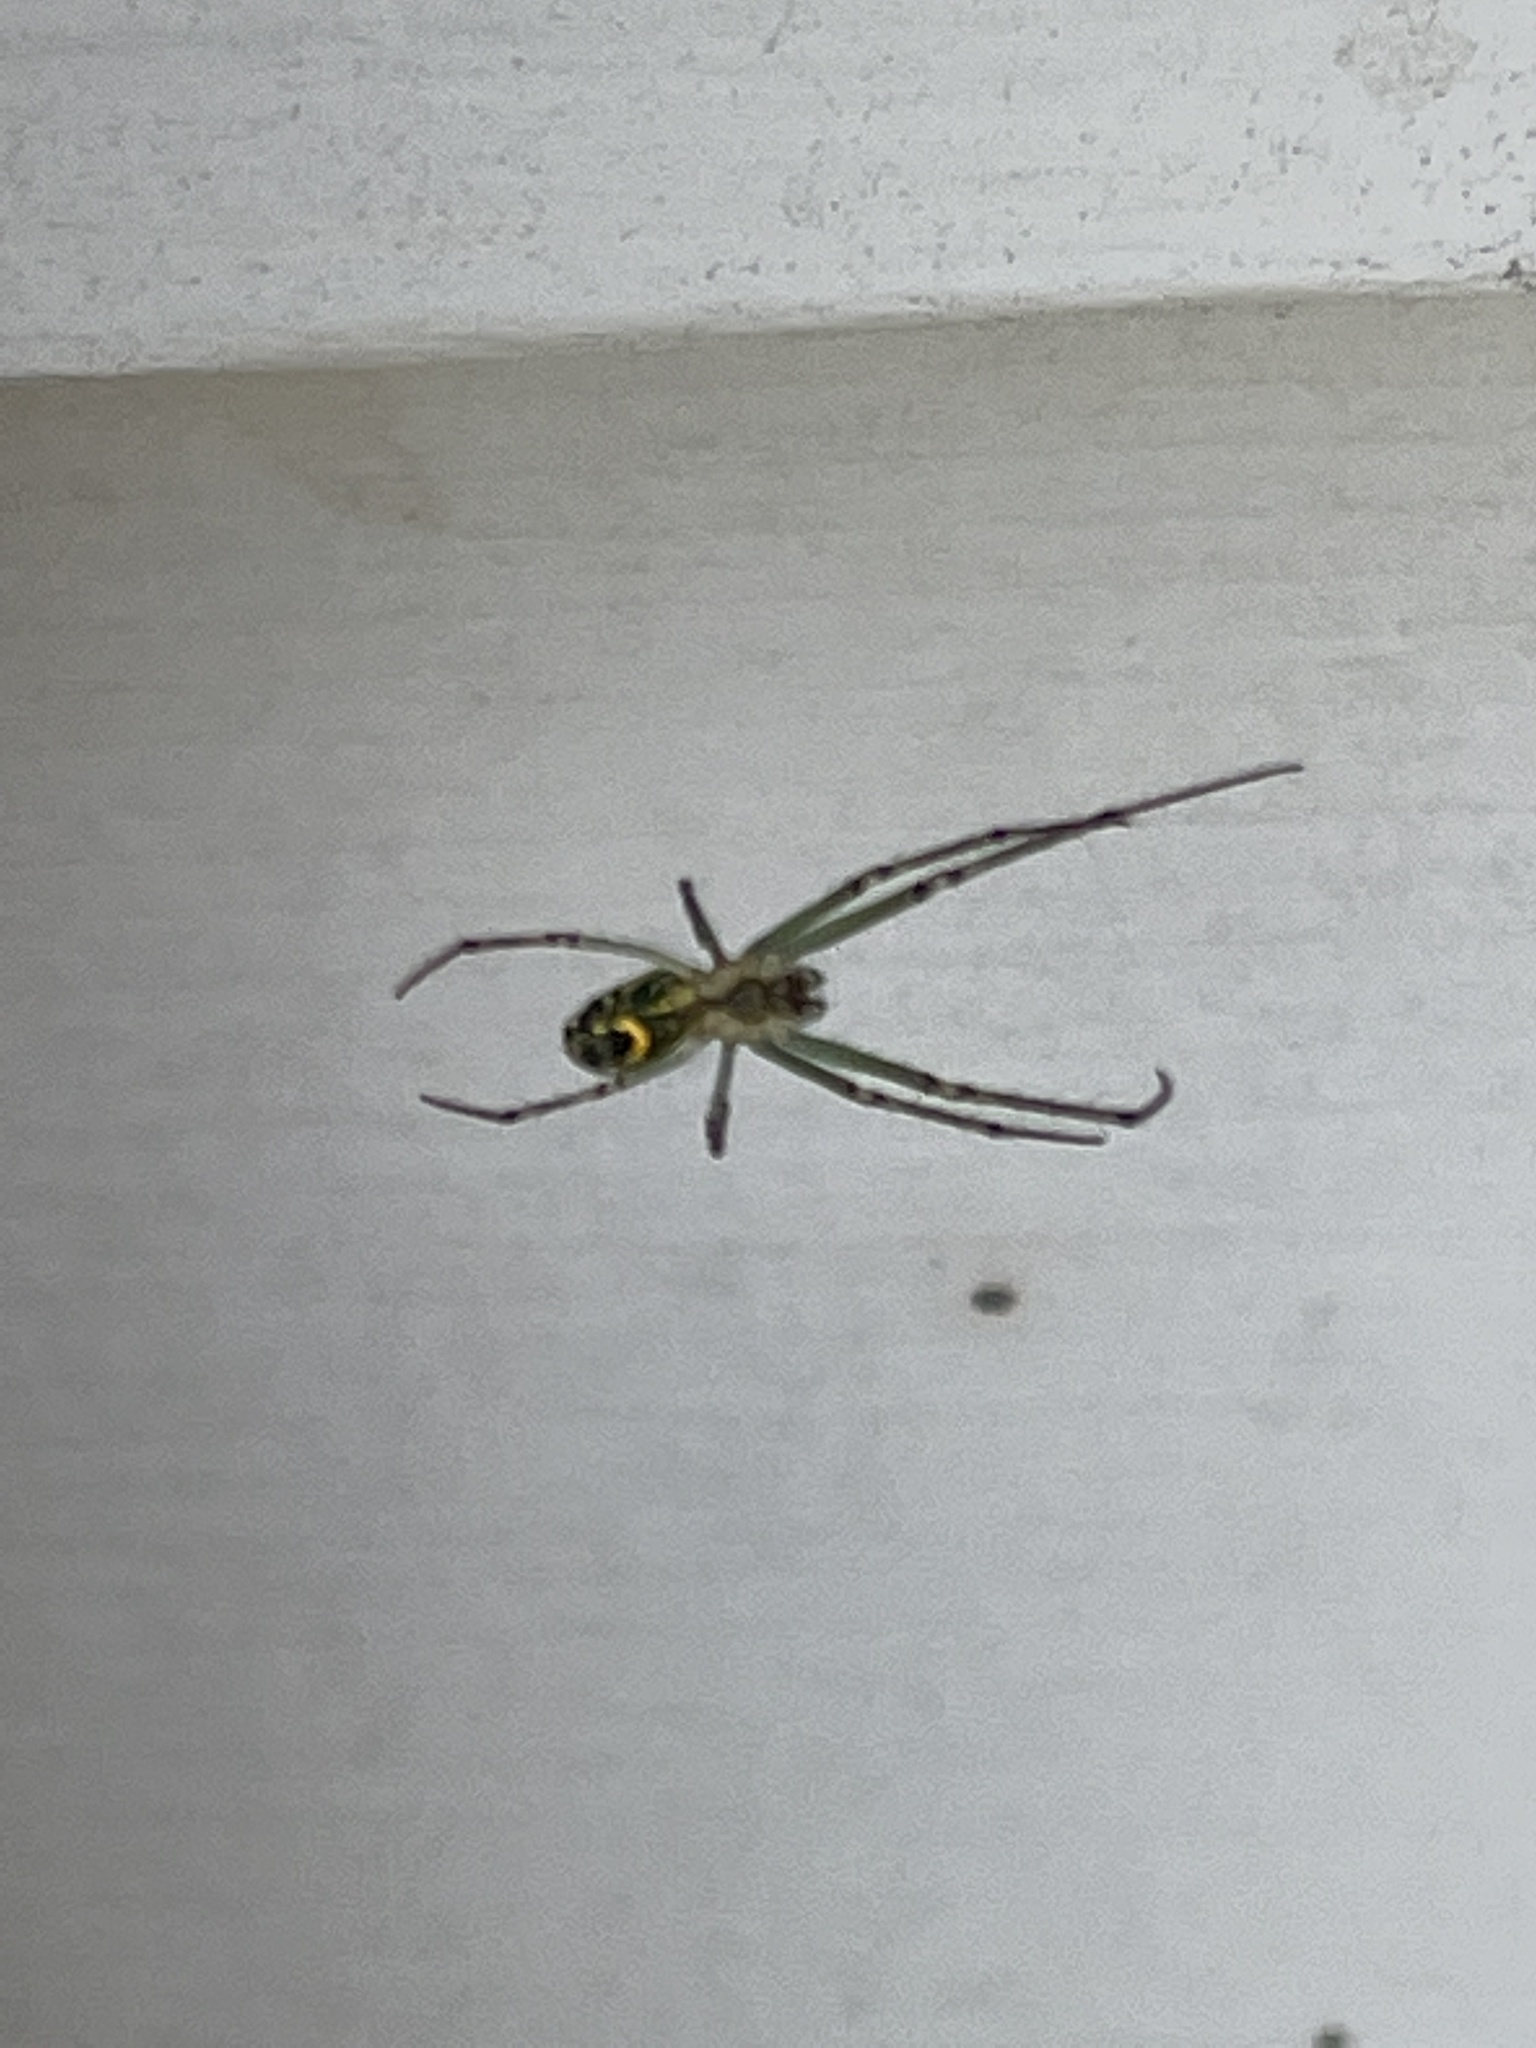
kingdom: Animalia
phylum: Arthropoda
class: Arachnida
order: Araneae
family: Tetragnathidae
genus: Leucauge
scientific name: Leucauge venusta
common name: Longjawed orb weavers
